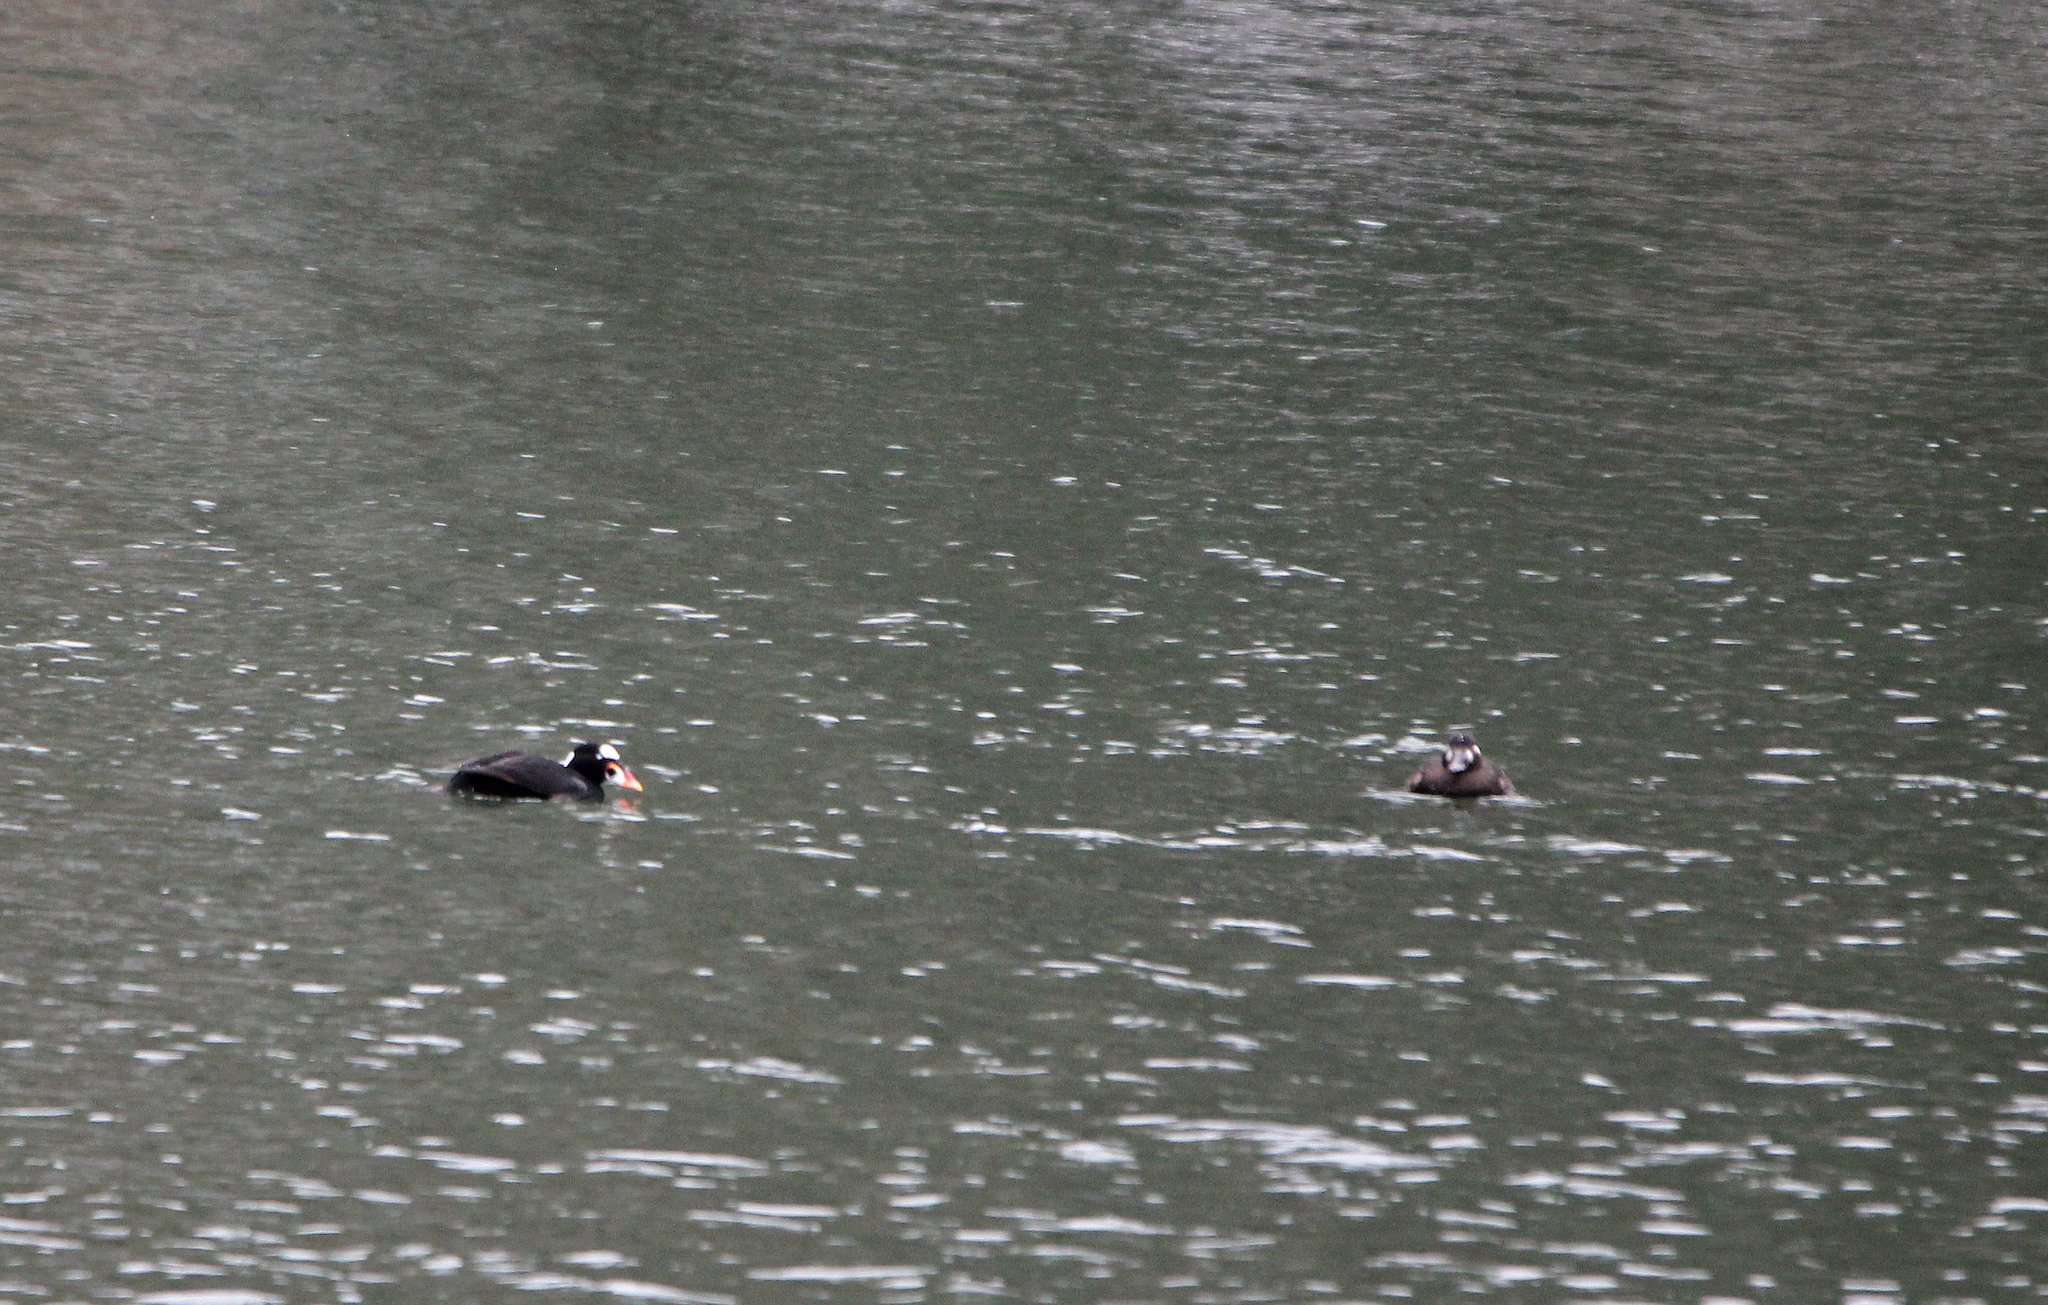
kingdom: Animalia
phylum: Chordata
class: Aves
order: Anseriformes
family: Anatidae
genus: Melanitta
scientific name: Melanitta perspicillata
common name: Surf scoter
